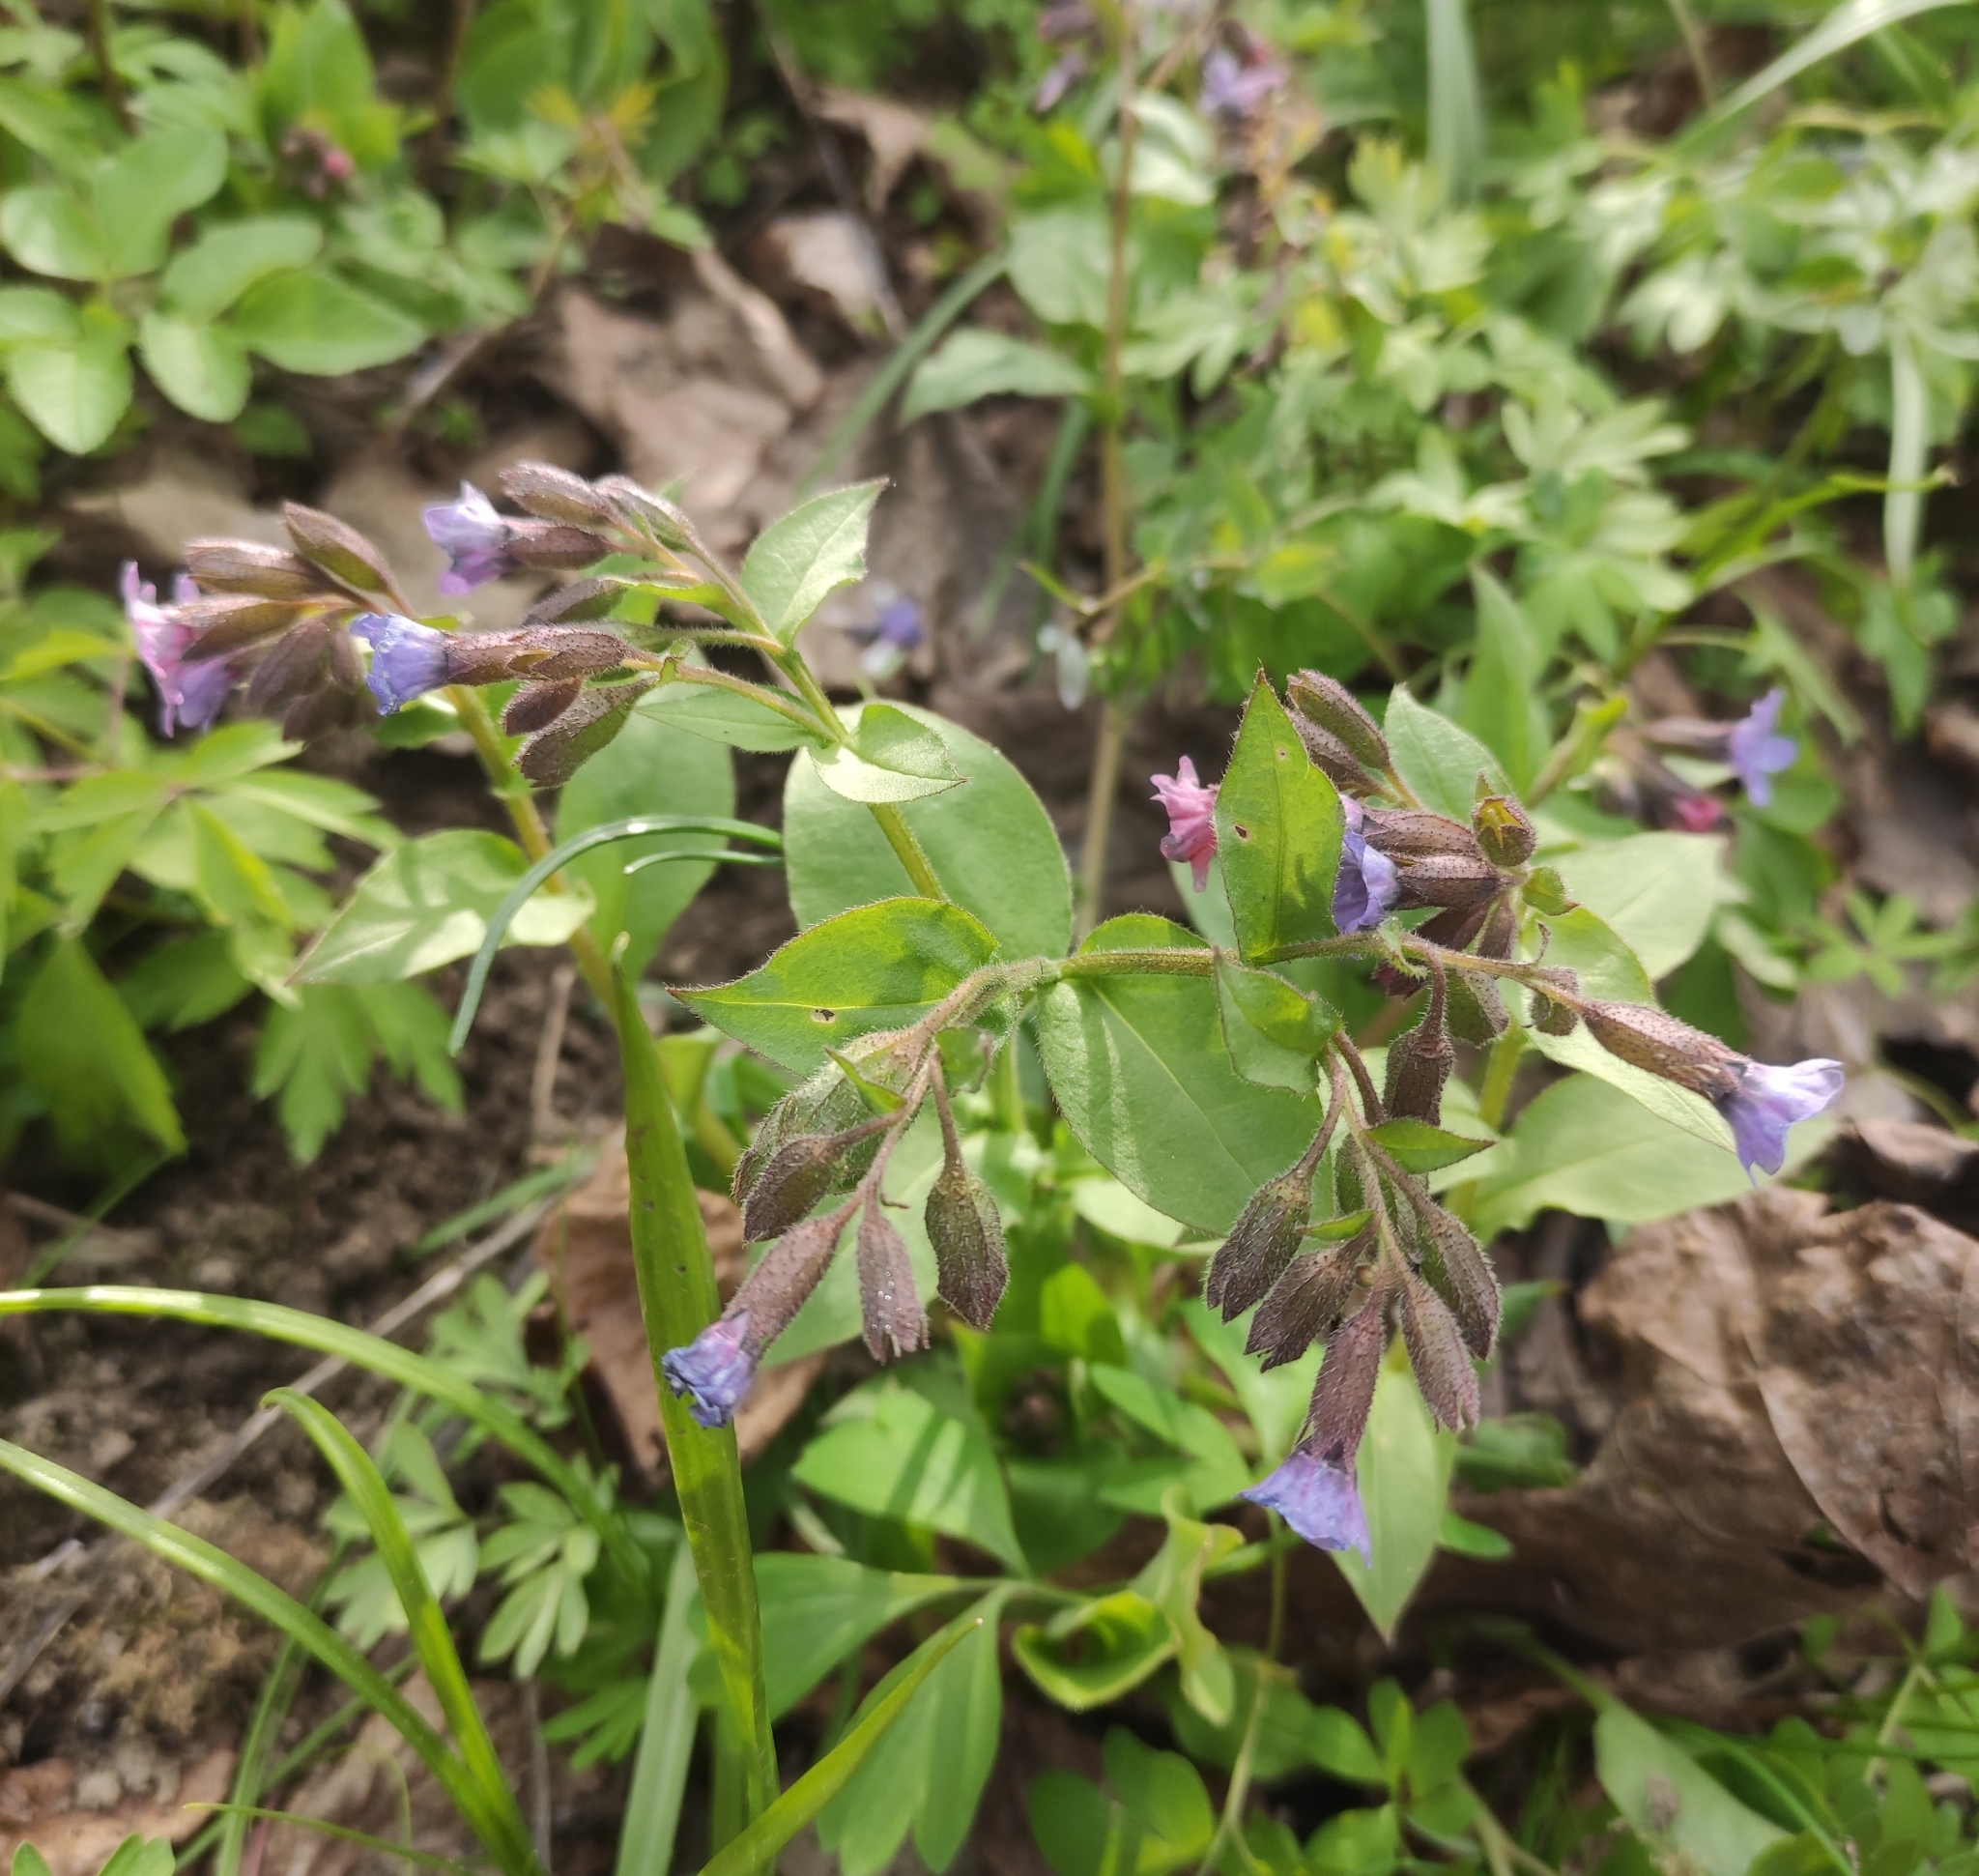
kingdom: Plantae
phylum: Tracheophyta
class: Magnoliopsida
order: Boraginales
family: Boraginaceae
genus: Pulmonaria
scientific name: Pulmonaria obscura
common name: Suffolk lungwort
